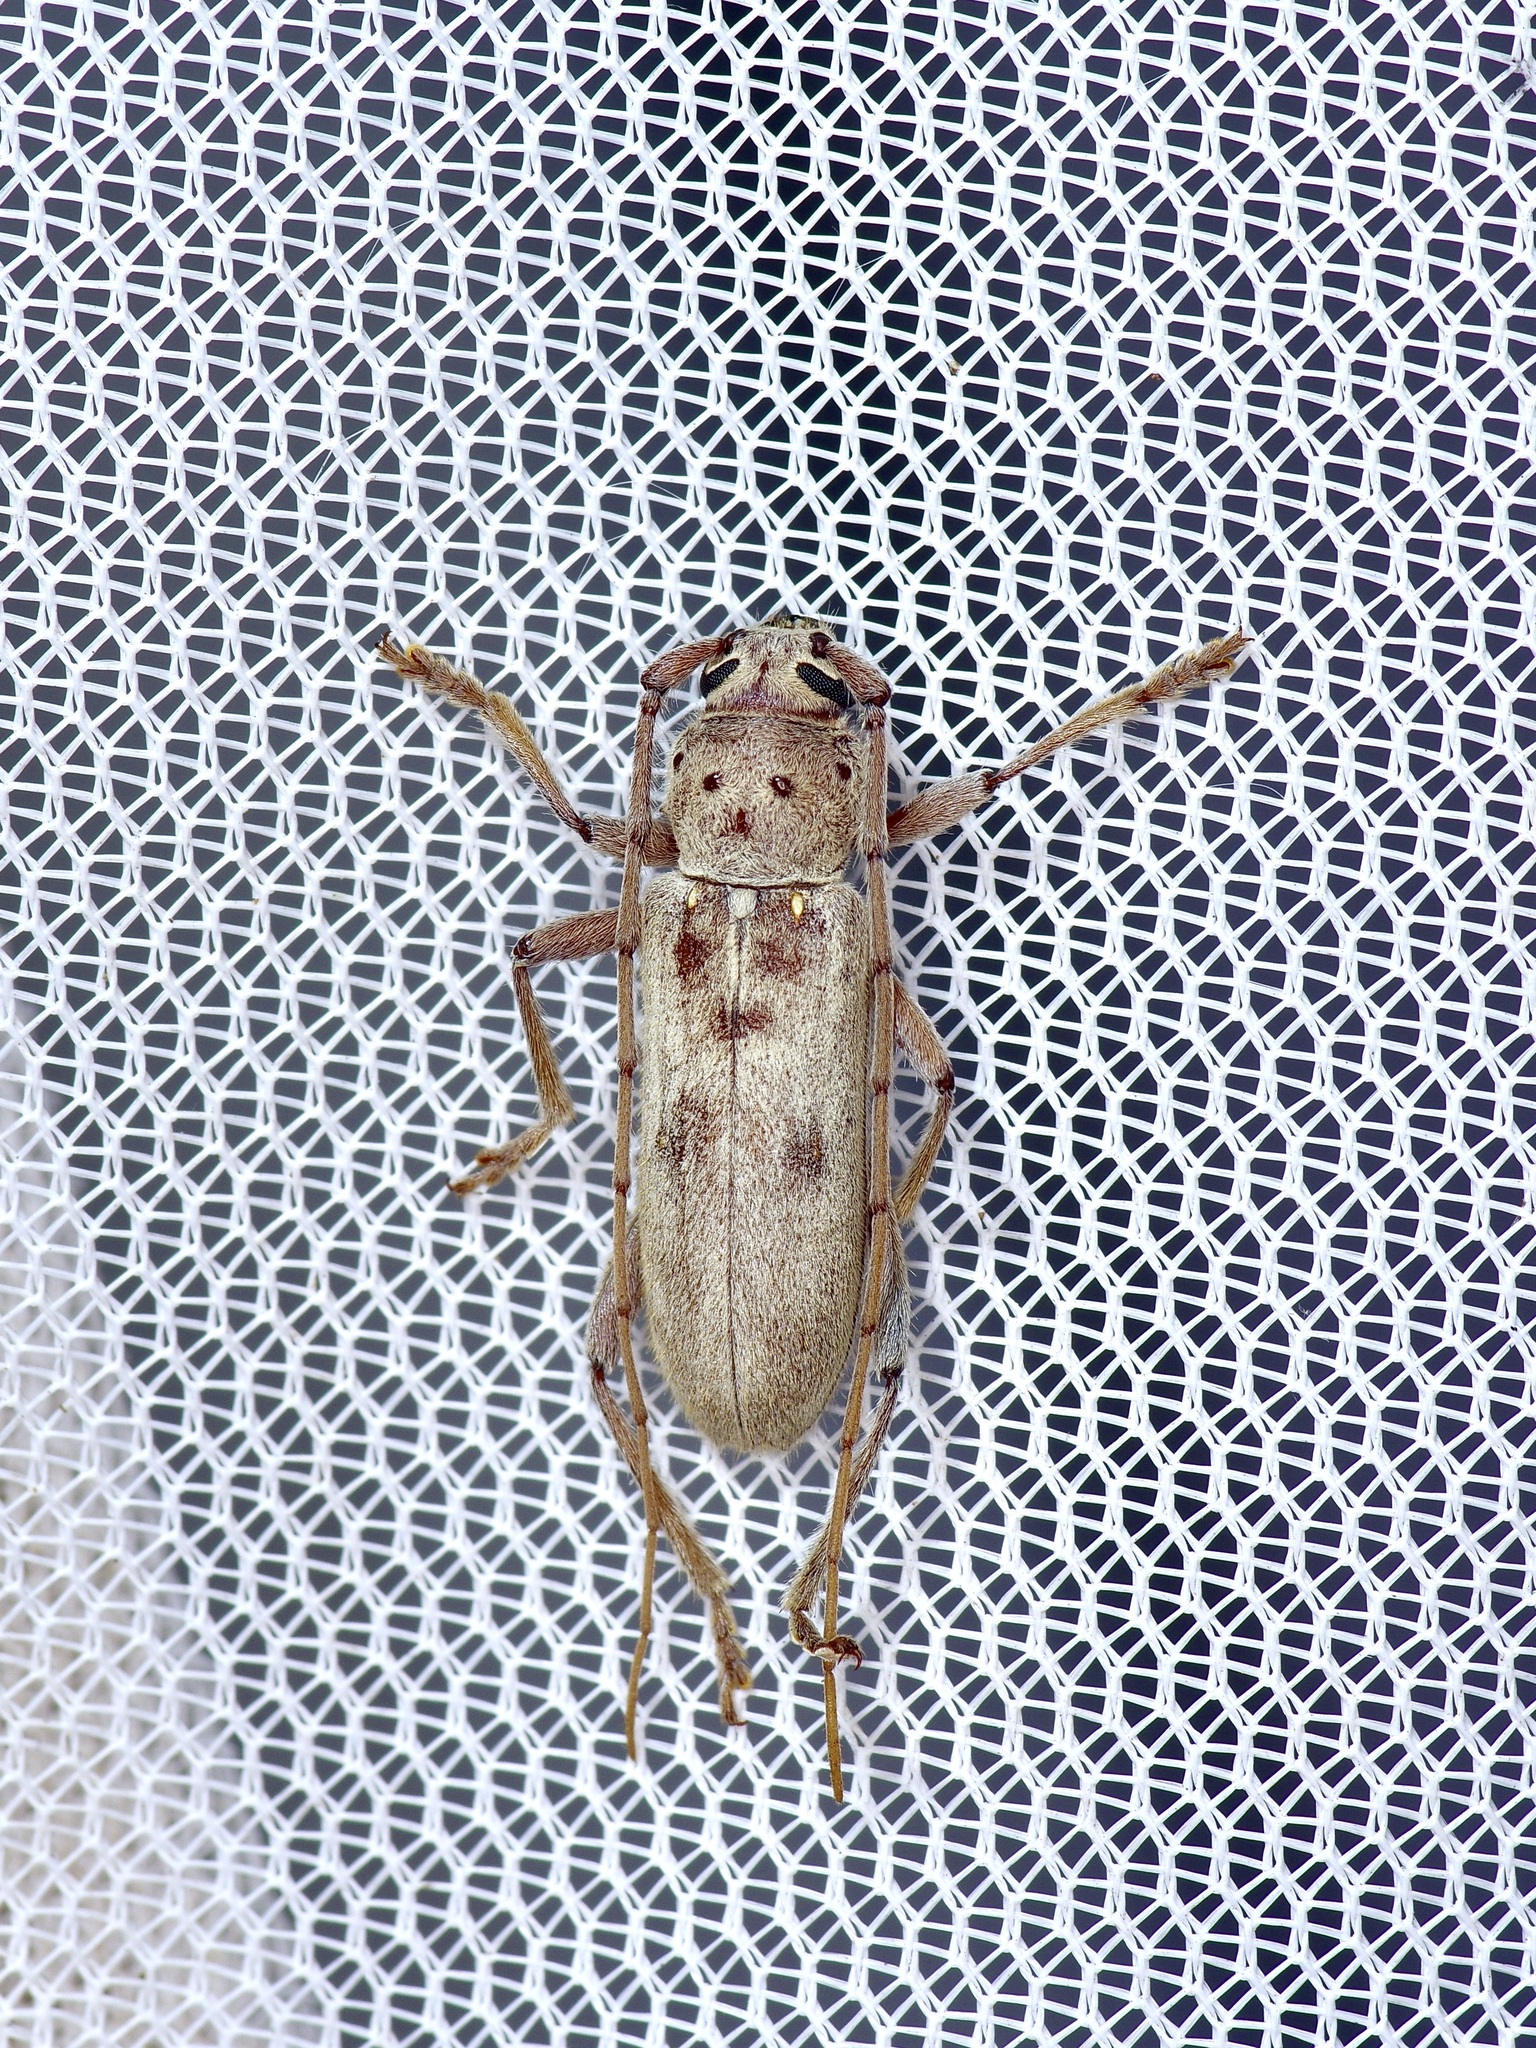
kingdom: Animalia
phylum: Arthropoda
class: Insecta
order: Coleoptera
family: Cerambycidae
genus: Eburia
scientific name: Eburia mutica
